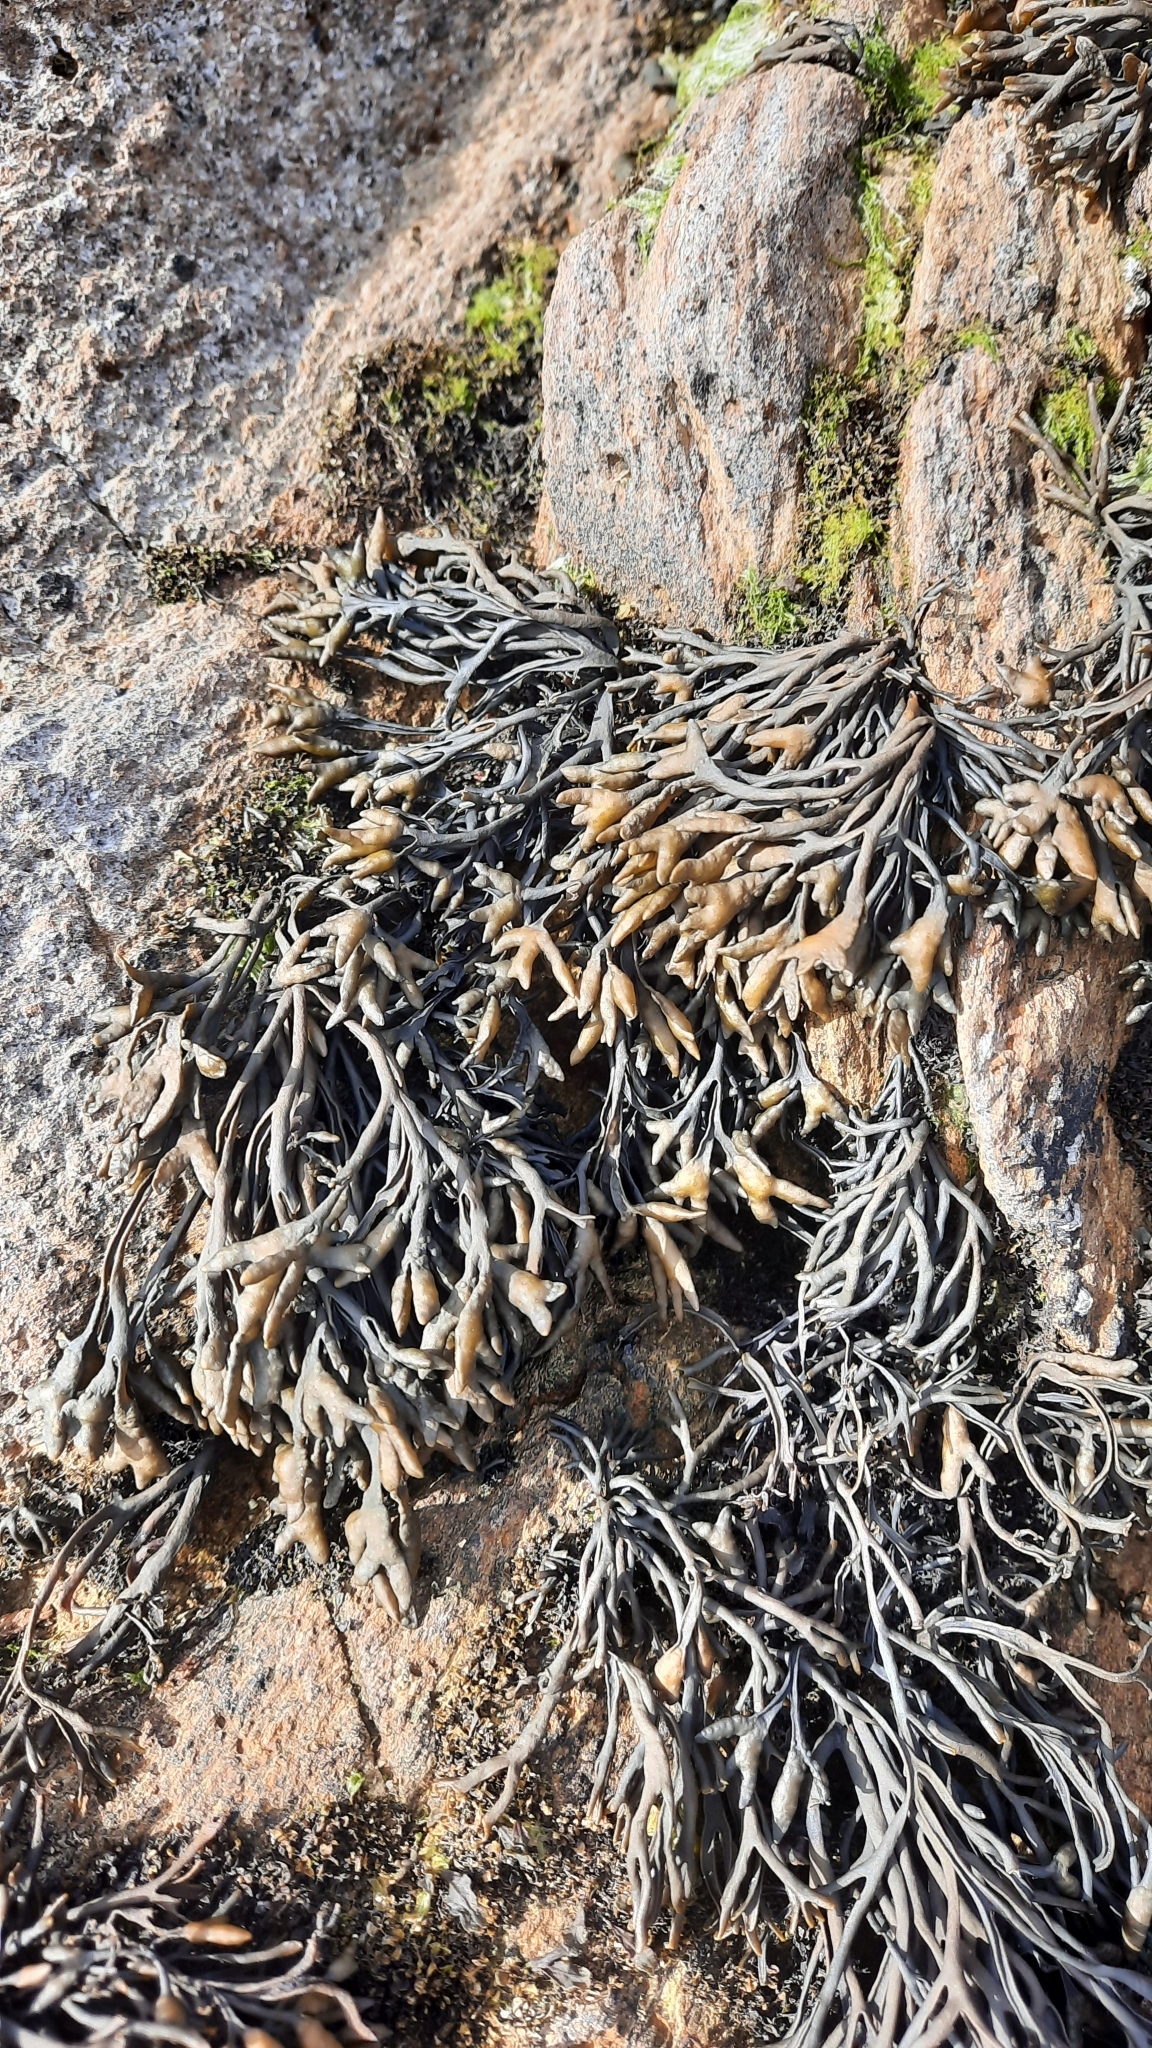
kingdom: Chromista
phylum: Ochrophyta
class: Phaeophyceae
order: Fucales
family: Fucaceae
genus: Pelvetia
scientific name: Pelvetia canaliculata
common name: Channelled wrack
